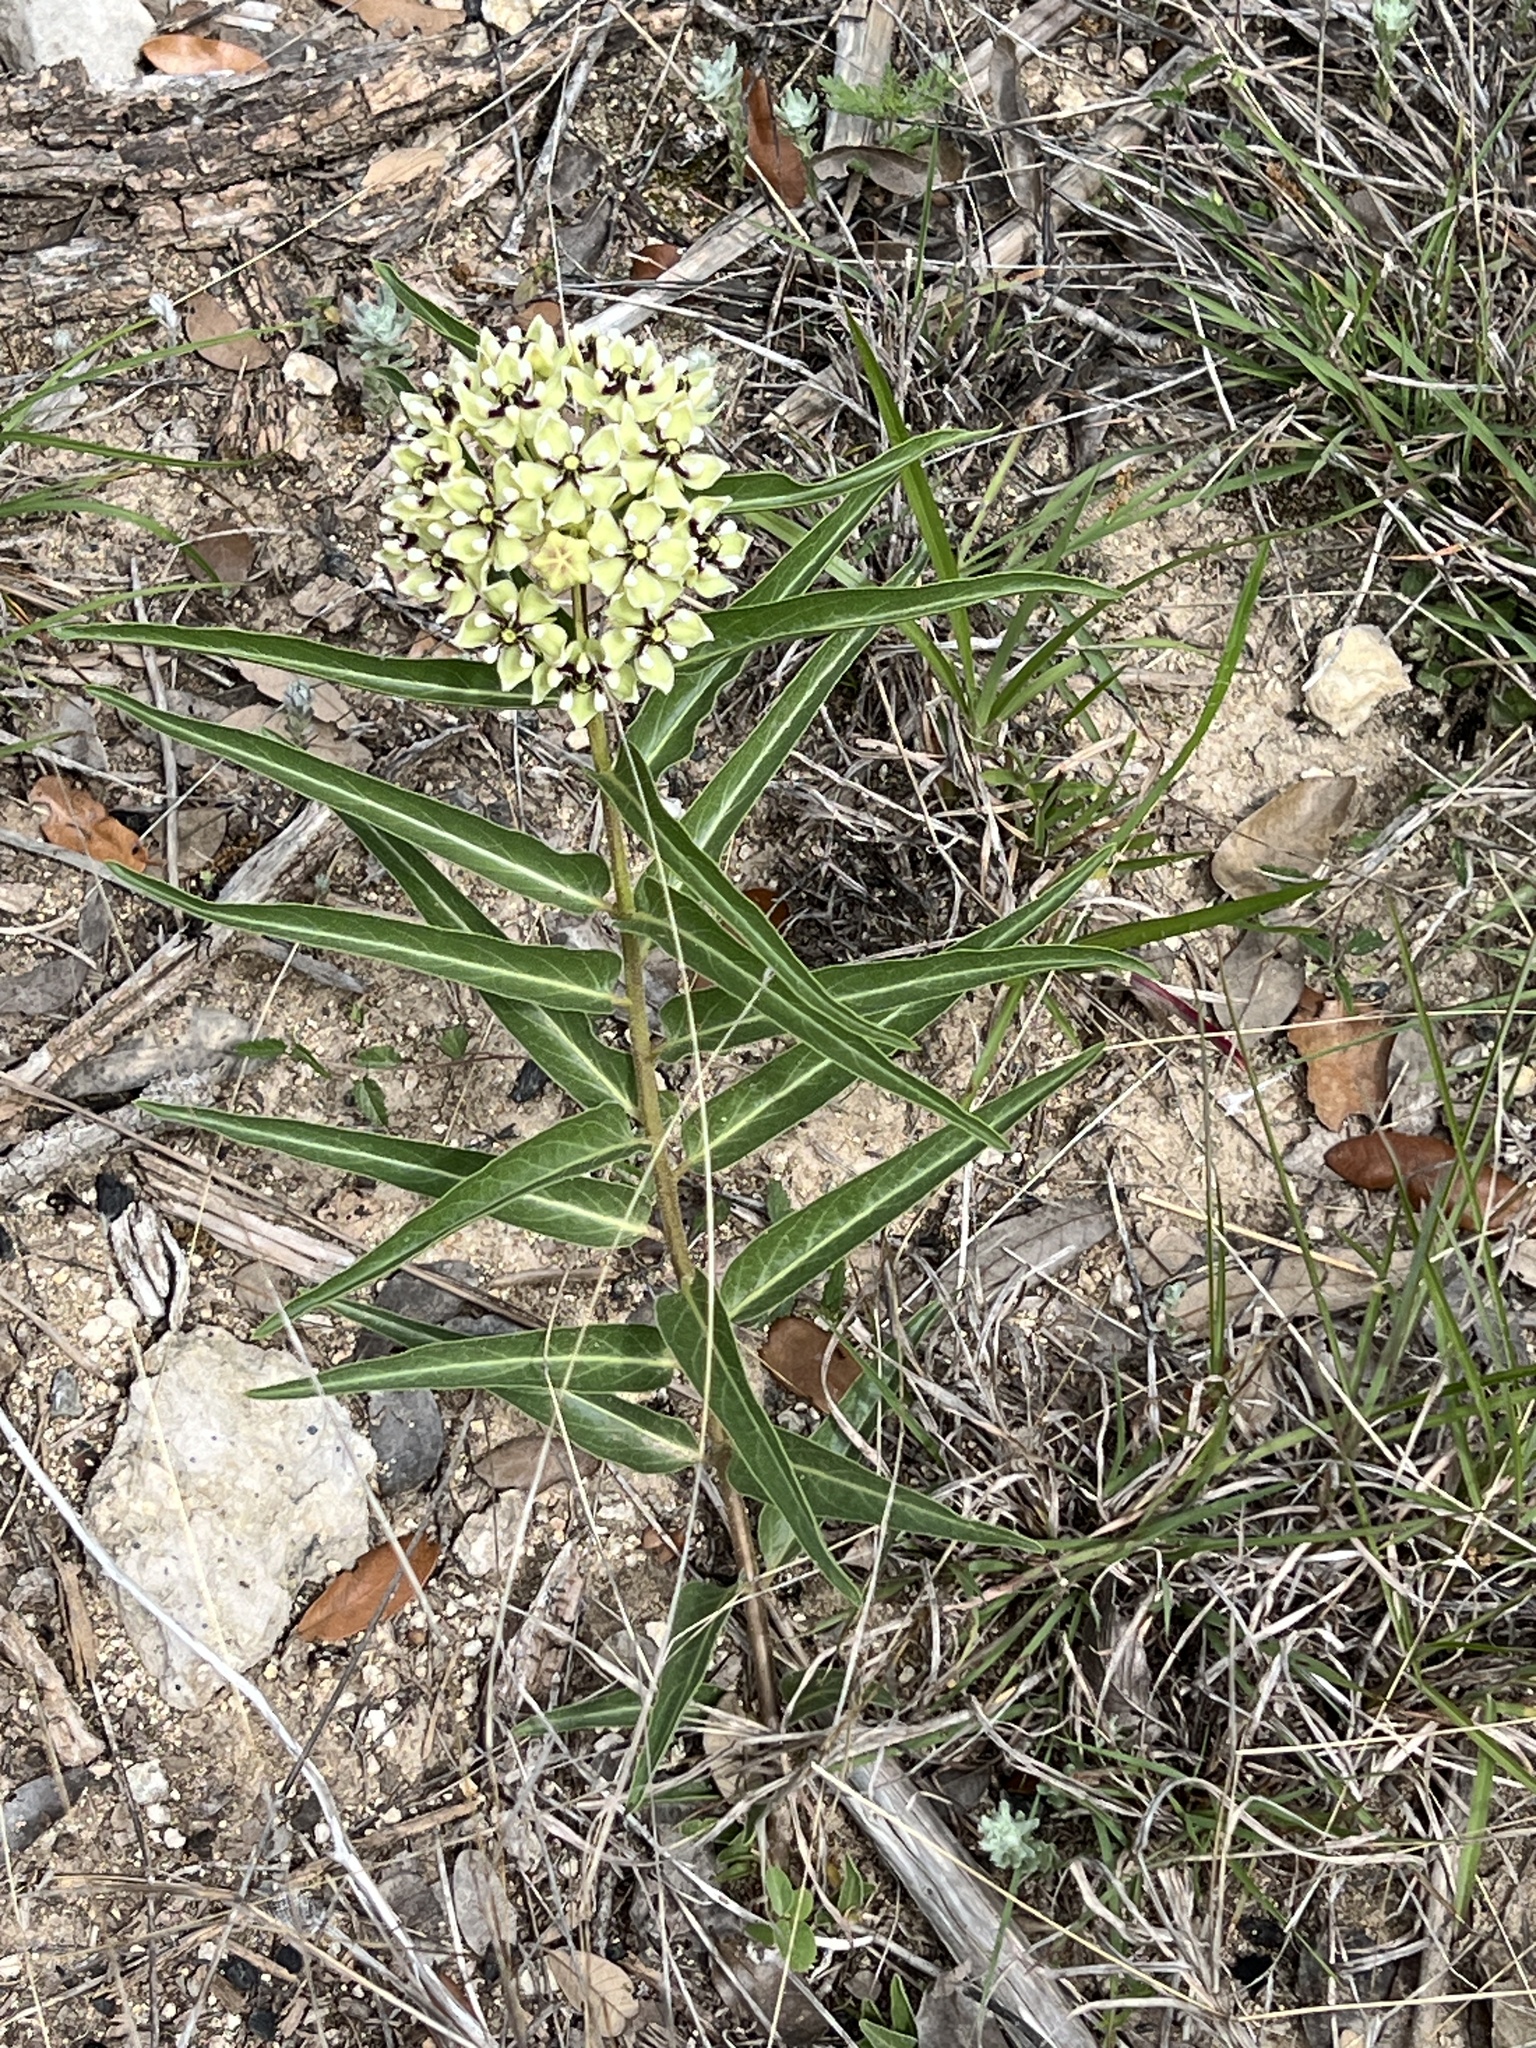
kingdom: Plantae
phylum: Tracheophyta
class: Magnoliopsida
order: Gentianales
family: Apocynaceae
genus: Asclepias
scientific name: Asclepias asperula
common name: Antelope horns
